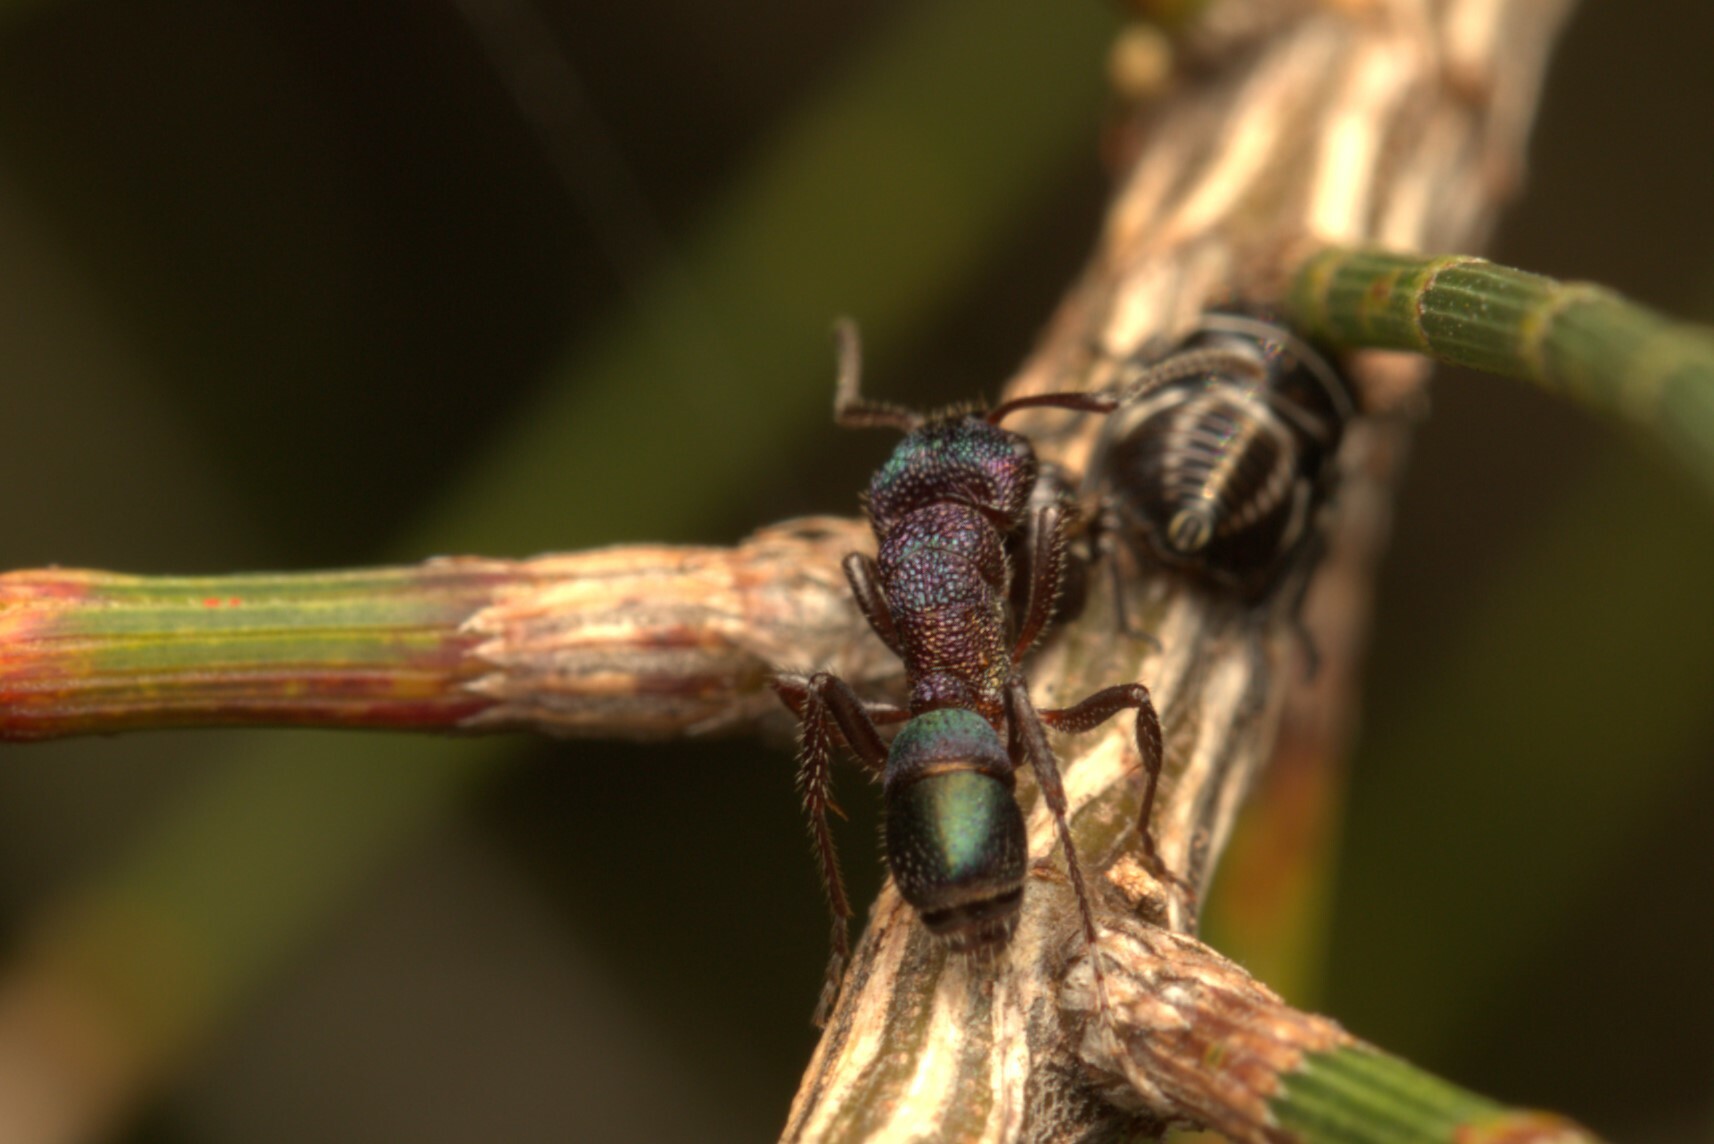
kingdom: Animalia
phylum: Arthropoda
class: Insecta
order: Hymenoptera
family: Formicidae
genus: Rhytidoponera
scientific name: Rhytidoponera metallica
